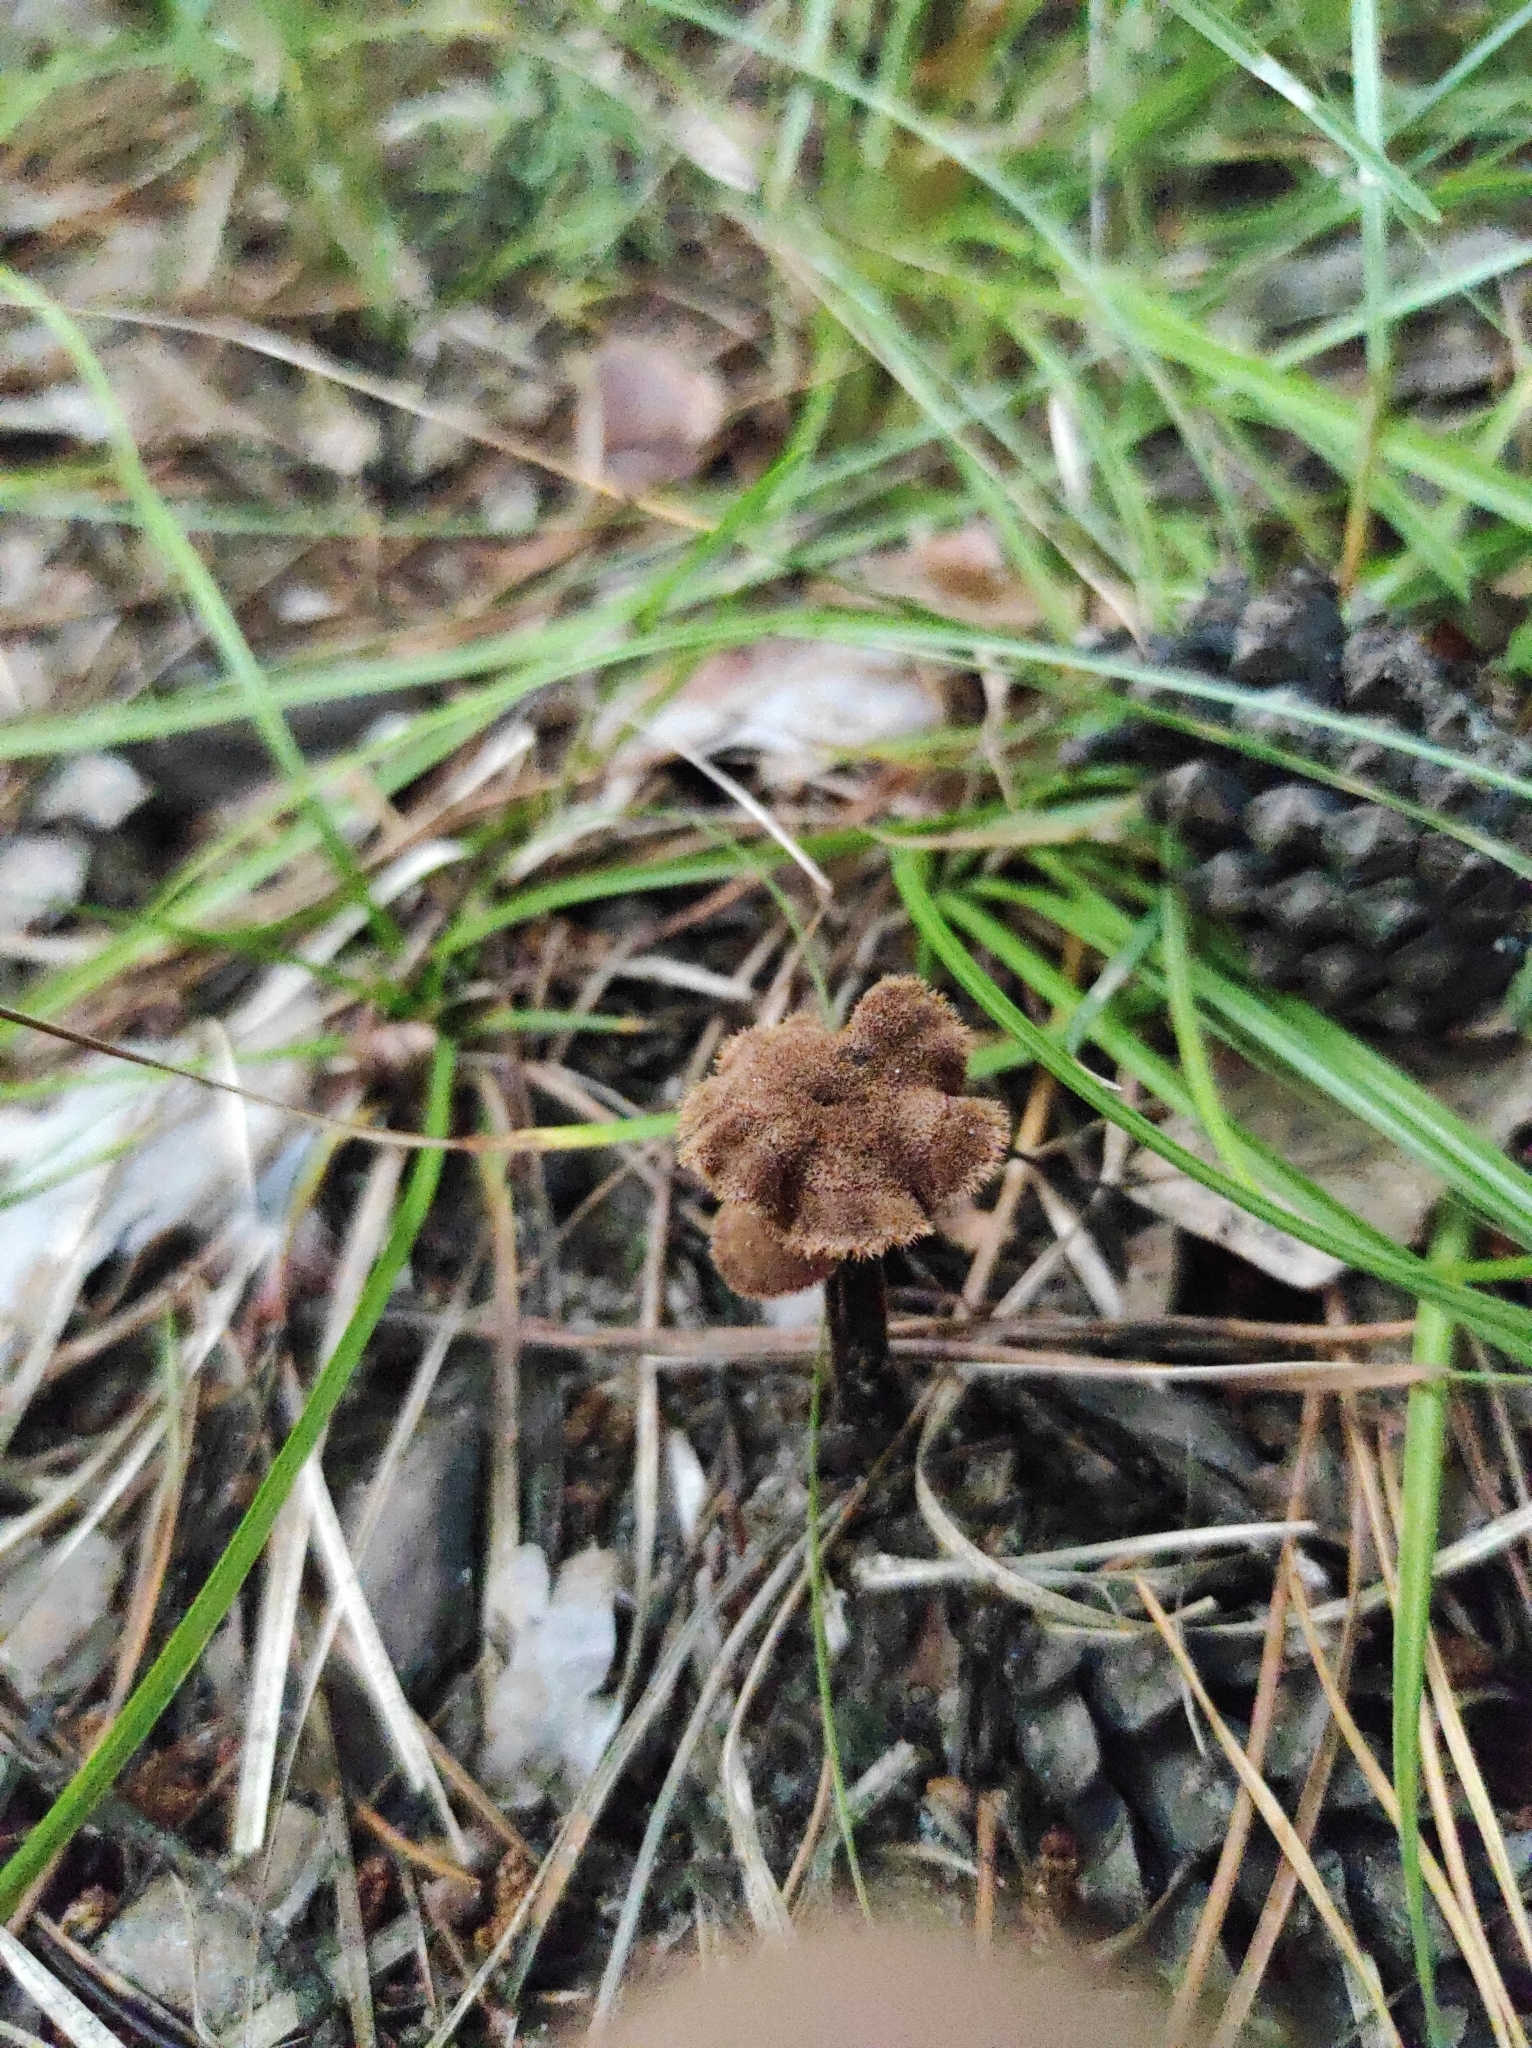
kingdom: Fungi
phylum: Basidiomycota
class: Agaricomycetes
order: Russulales
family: Auriscalpiaceae
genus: Auriscalpium
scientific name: Auriscalpium vulgare
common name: Earpick fungus
